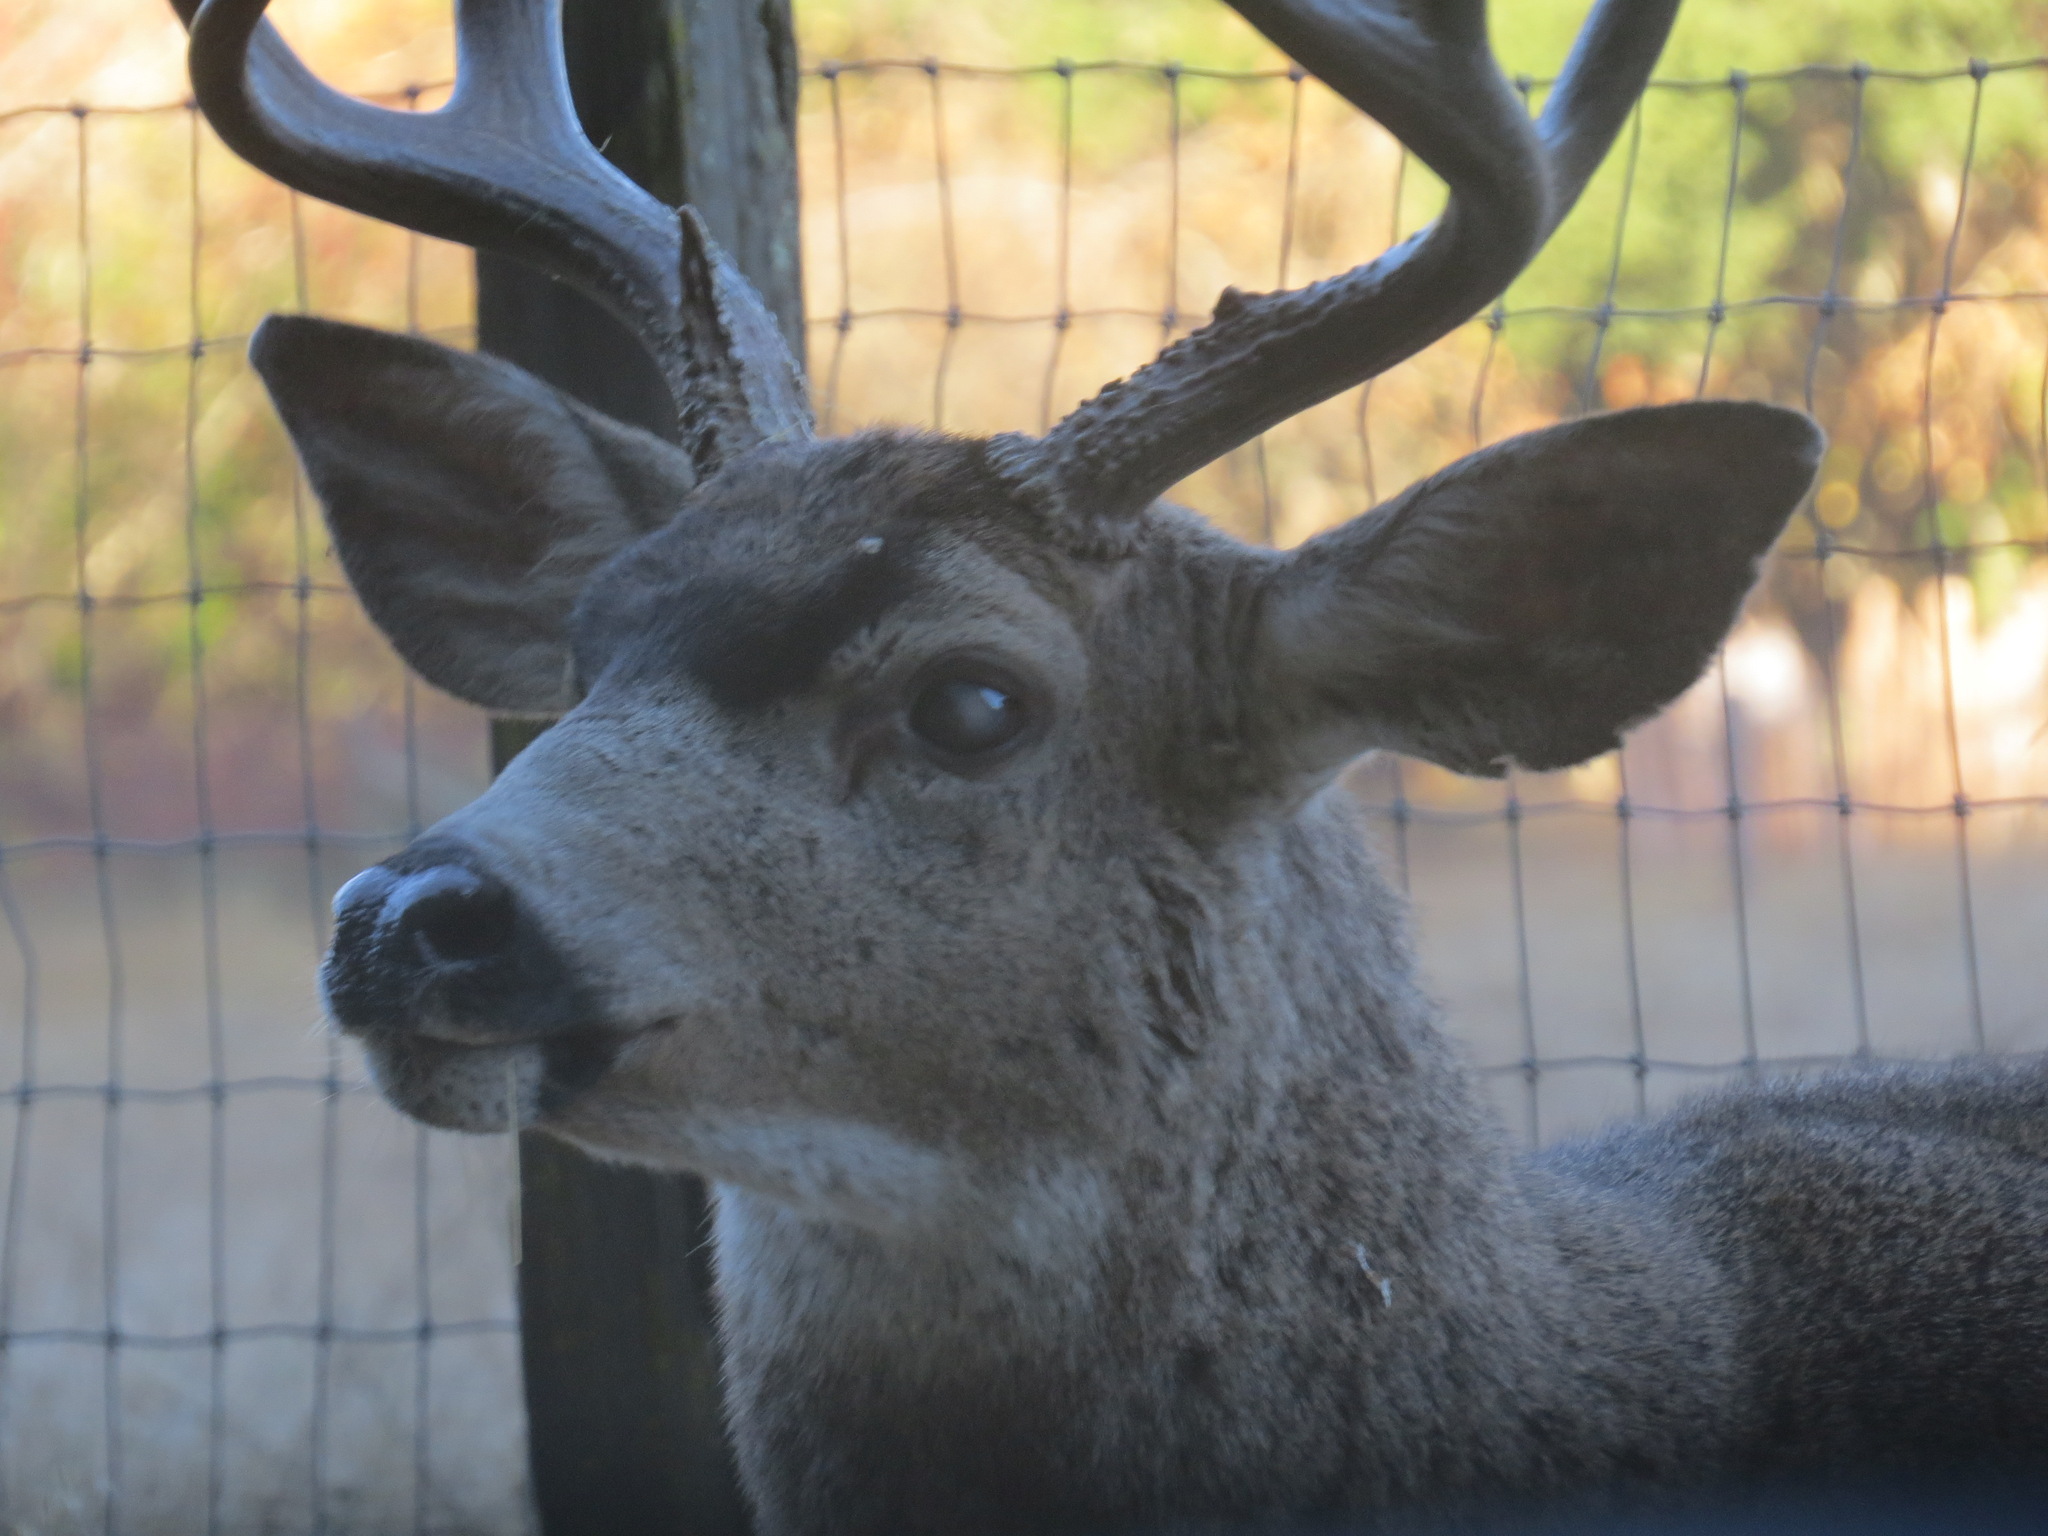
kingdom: Animalia
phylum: Chordata
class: Mammalia
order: Artiodactyla
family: Cervidae
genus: Odocoileus
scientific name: Odocoileus hemionus
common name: Mule deer
